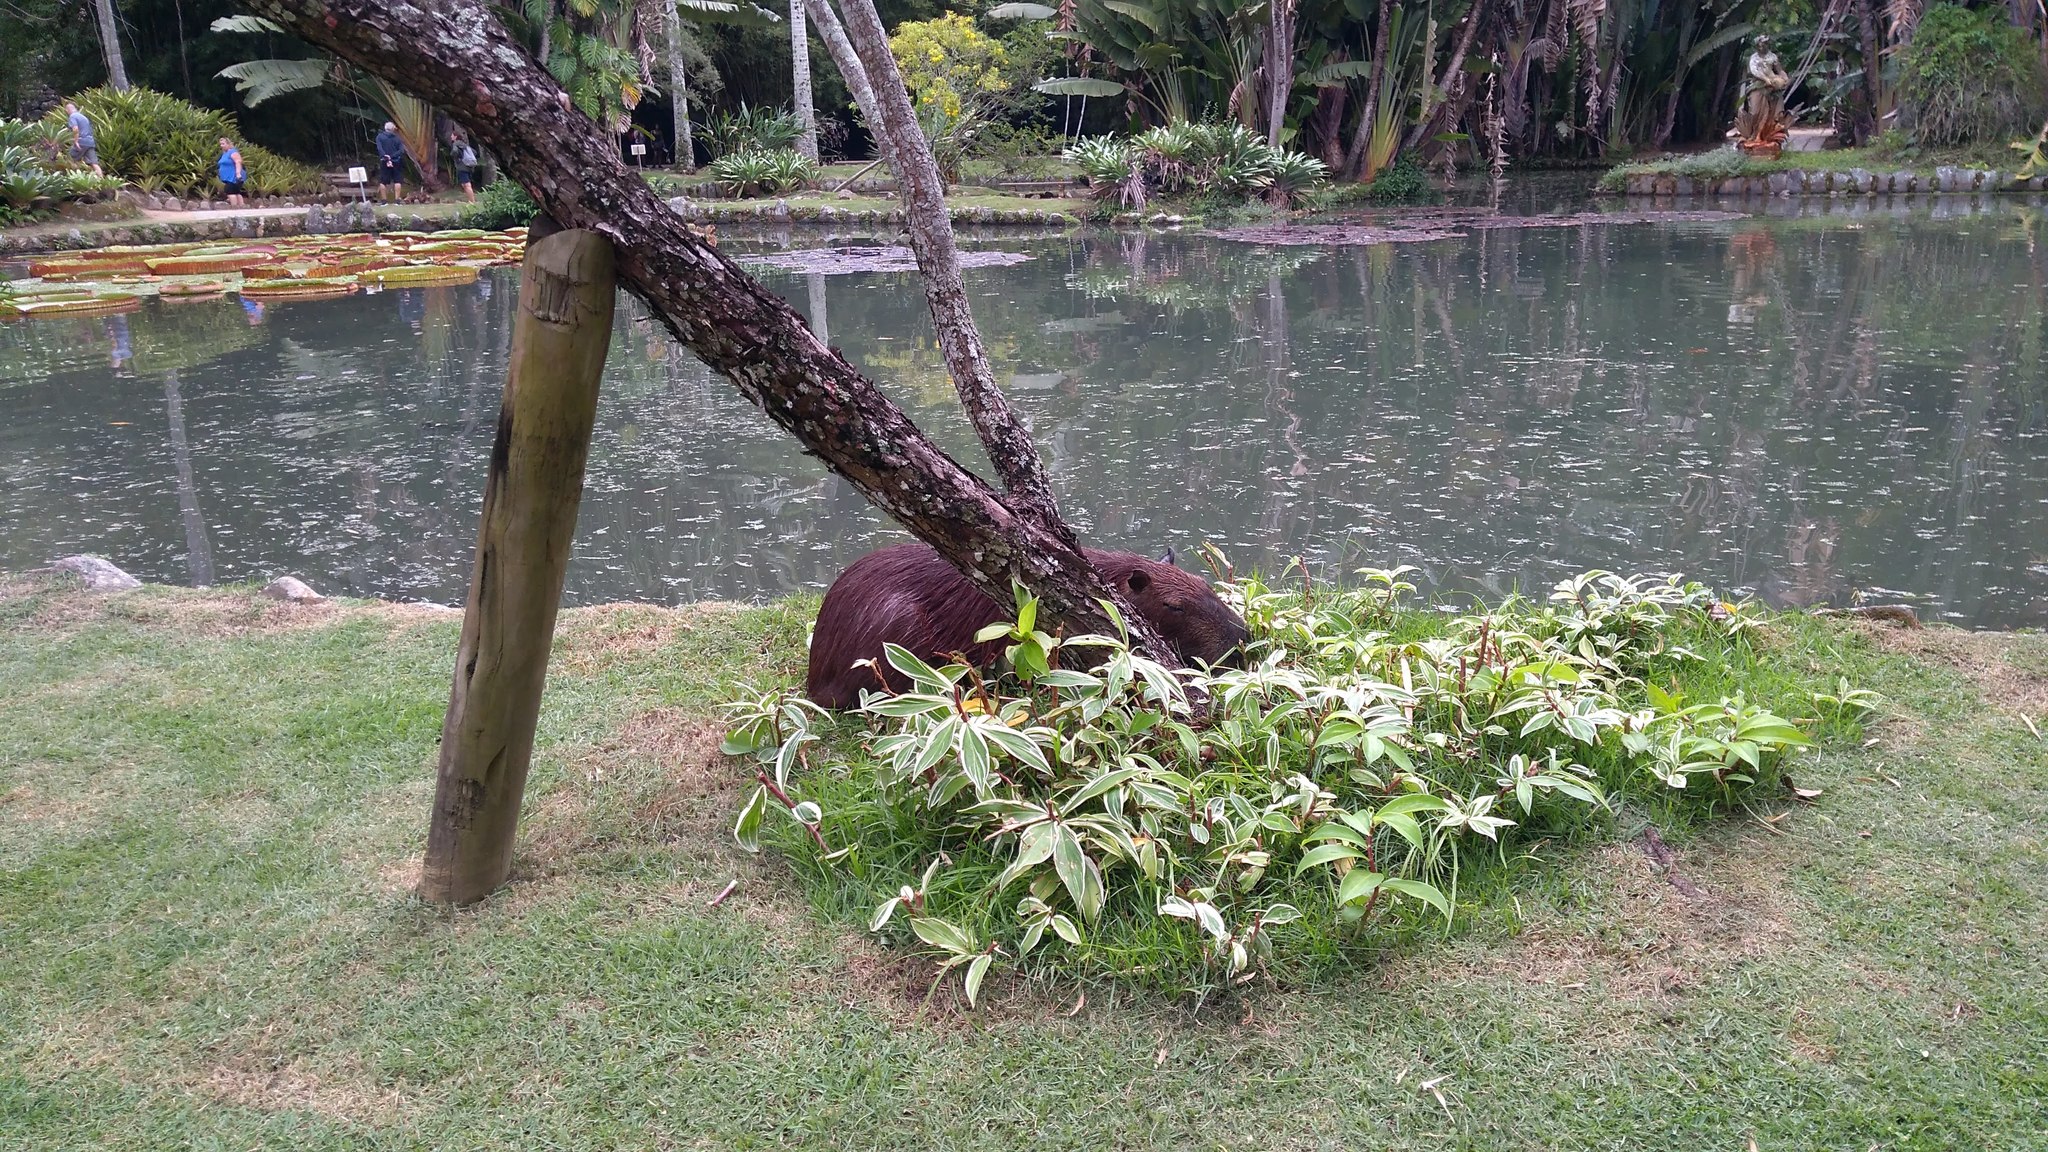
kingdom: Animalia
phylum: Chordata
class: Mammalia
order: Rodentia
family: Caviidae
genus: Hydrochoerus
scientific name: Hydrochoerus hydrochaeris
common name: Capybara
